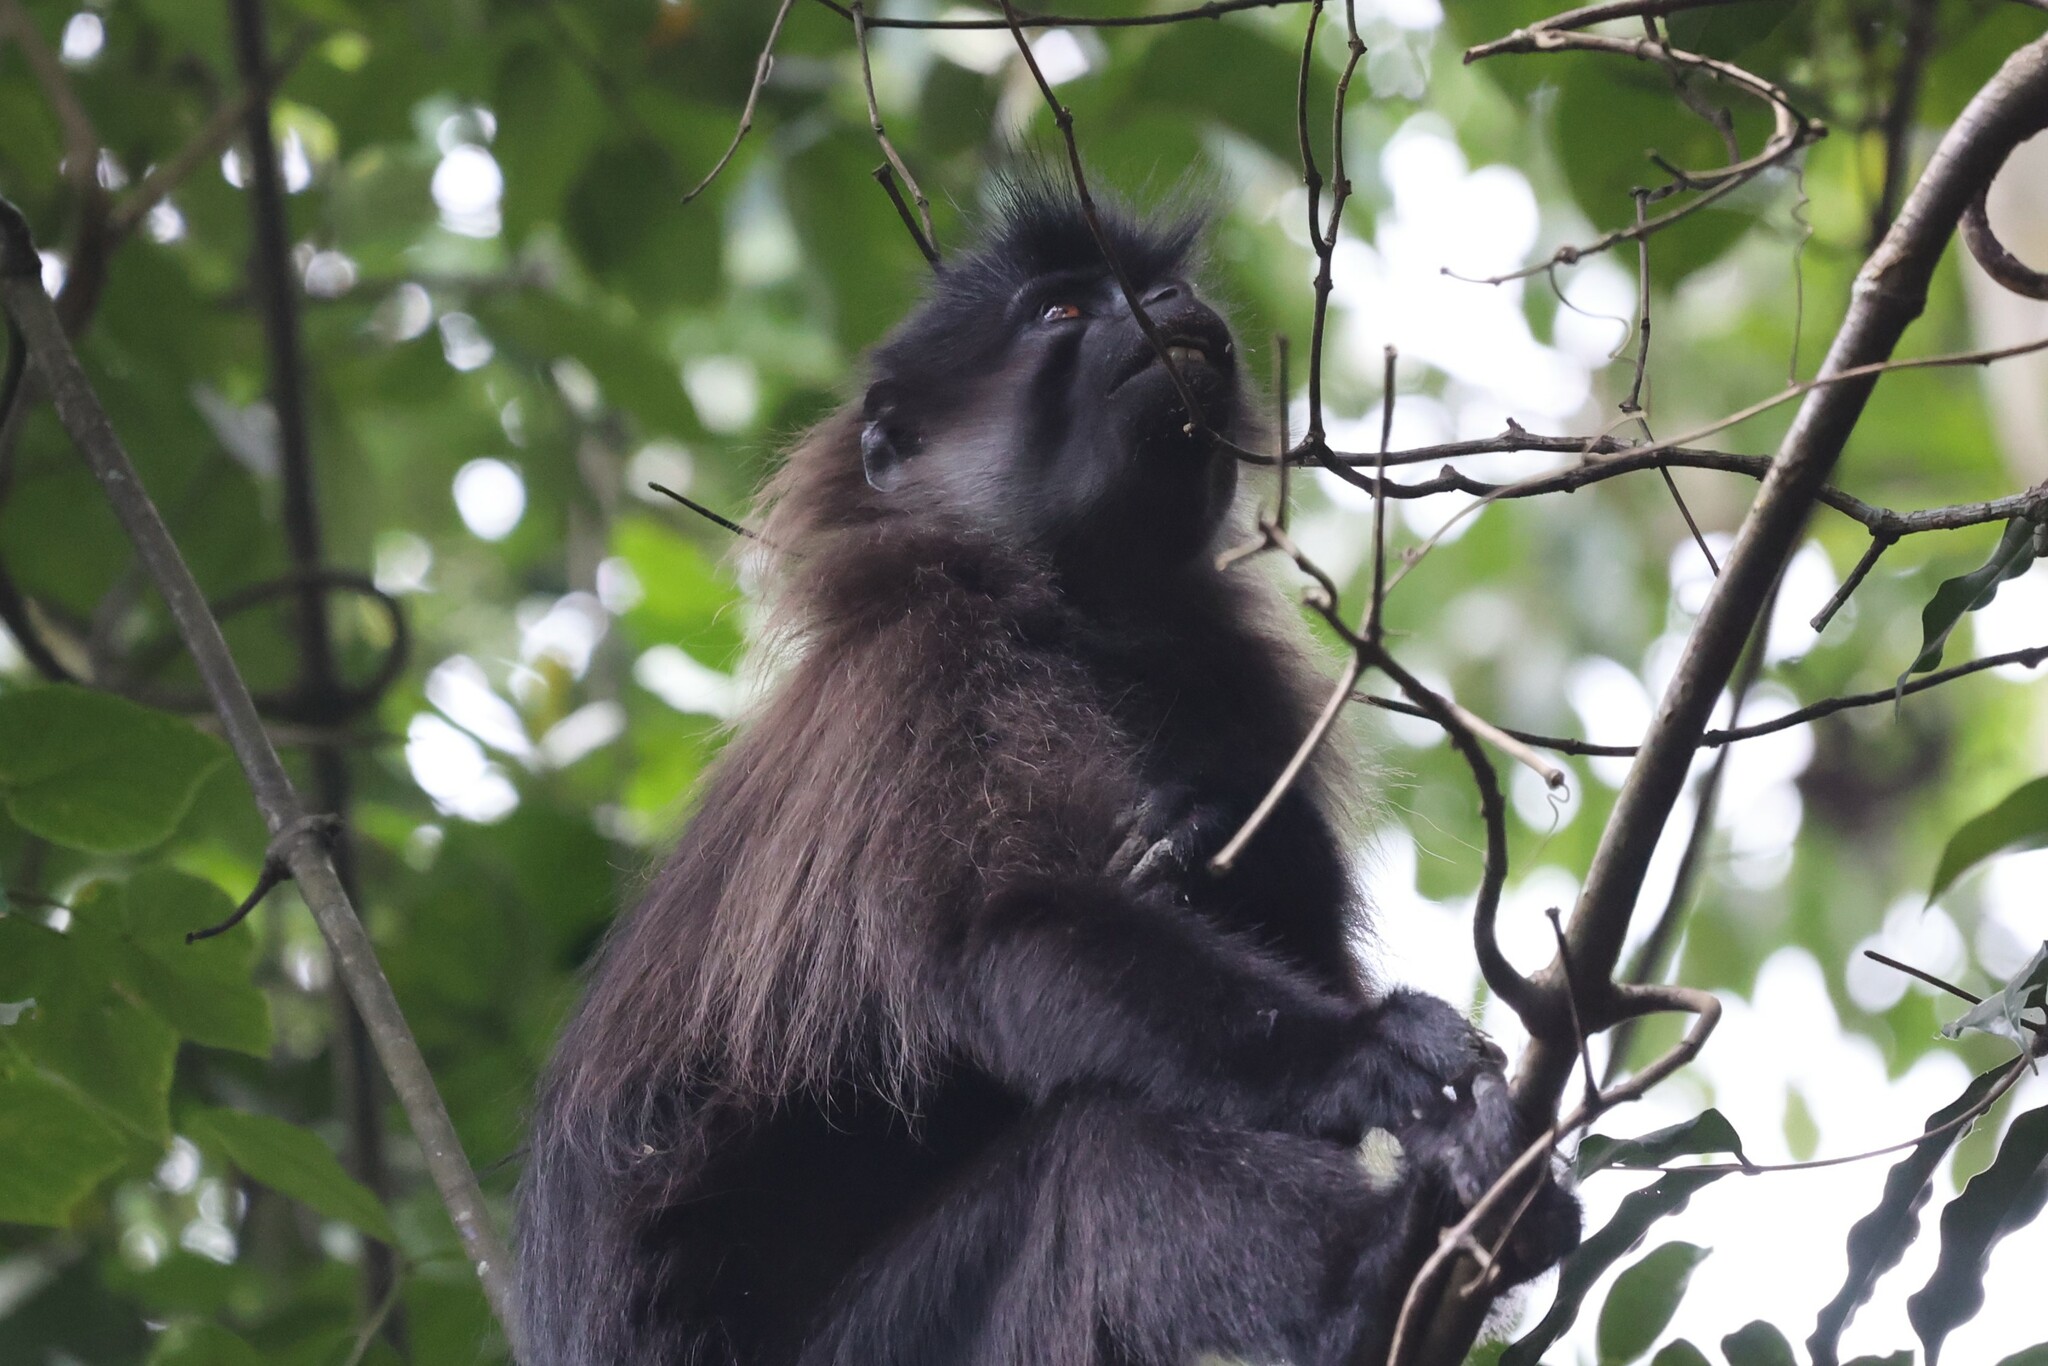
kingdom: Animalia
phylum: Chordata
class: Mammalia
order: Primates
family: Cercopithecidae
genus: Lophocebus
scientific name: Lophocebus albigena
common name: Gray-cheeked mangabey
